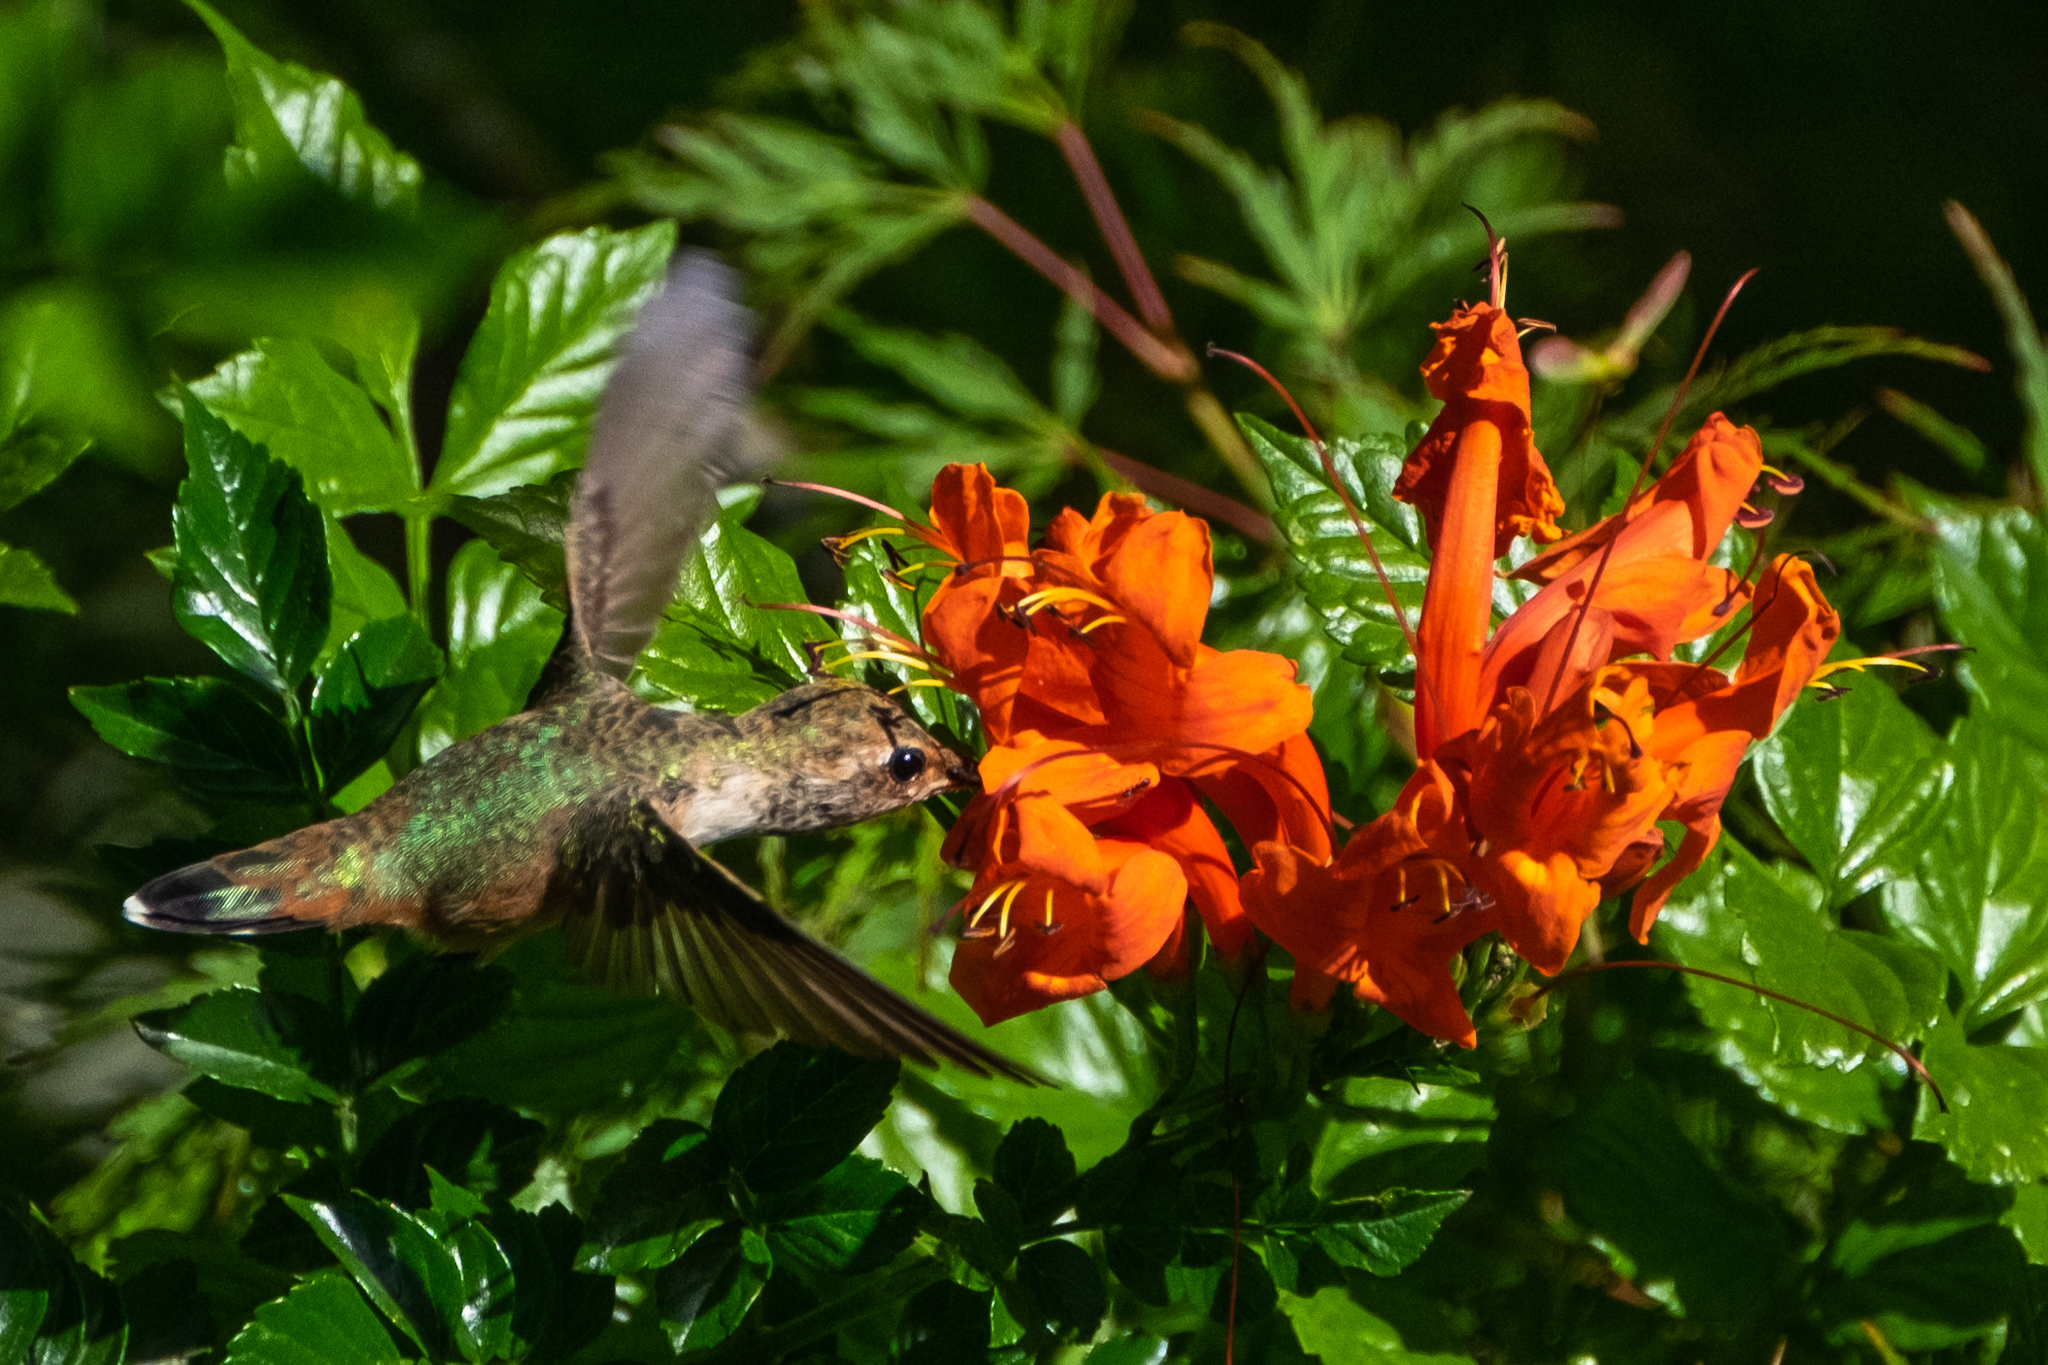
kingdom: Animalia
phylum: Chordata
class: Aves
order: Apodiformes
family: Trochilidae
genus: Selasphorus
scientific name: Selasphorus sasin
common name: Allen's hummingbird
